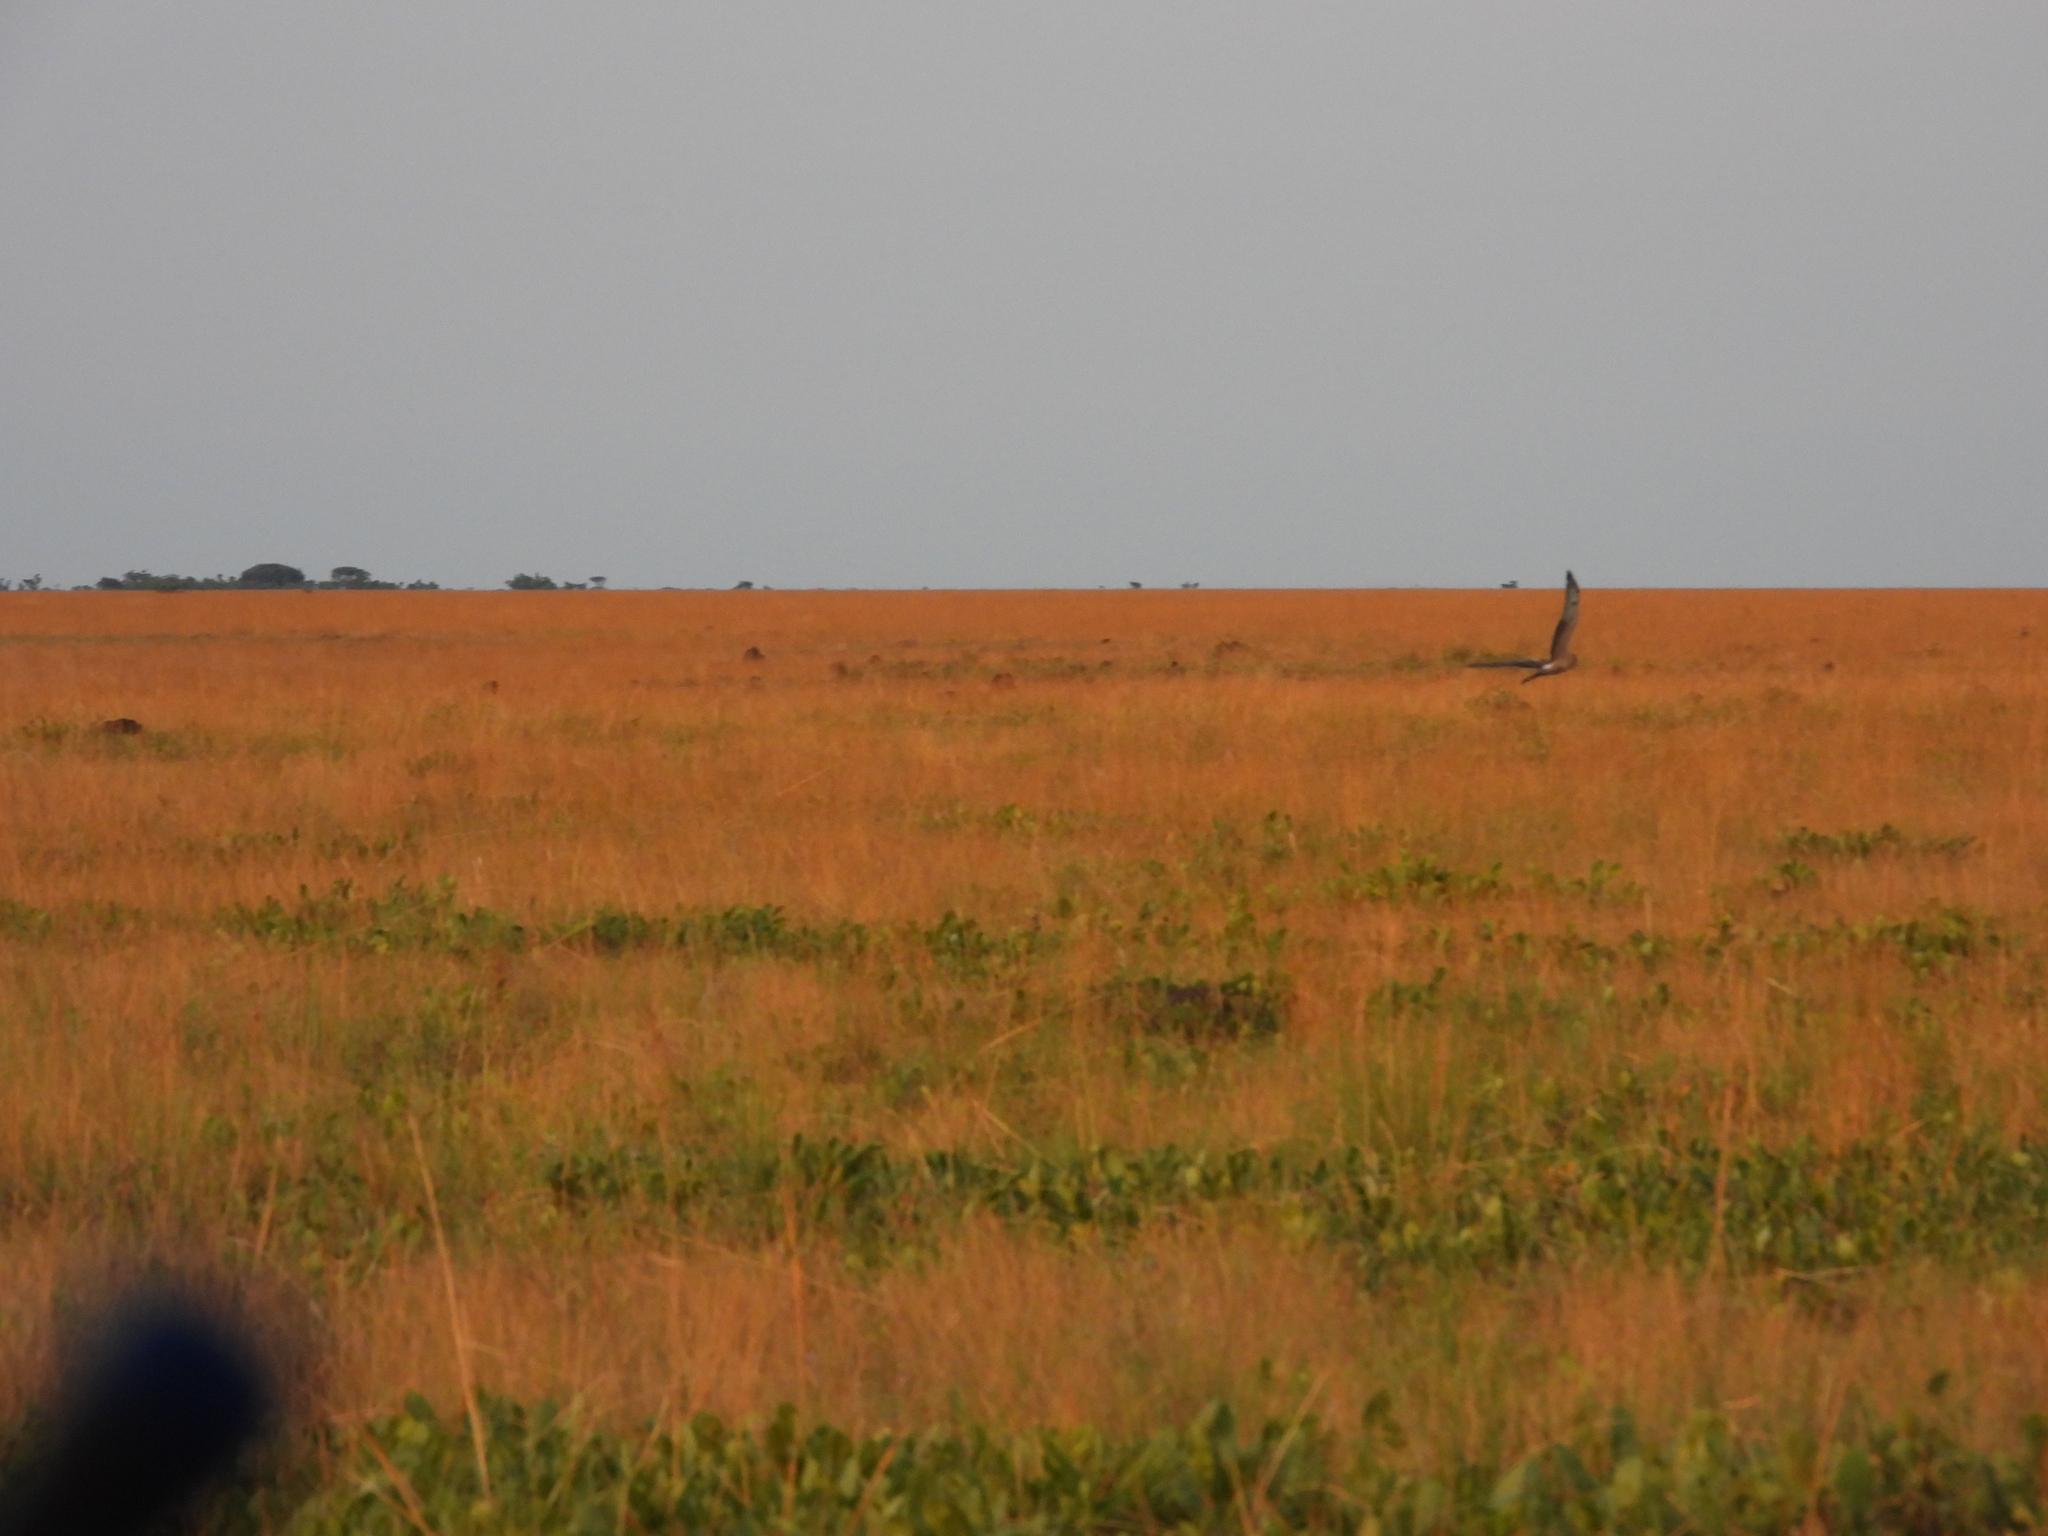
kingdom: Animalia
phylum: Chordata
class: Aves
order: Accipitriformes
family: Accipitridae
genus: Circus
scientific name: Circus macrourus
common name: Pallid harrier
